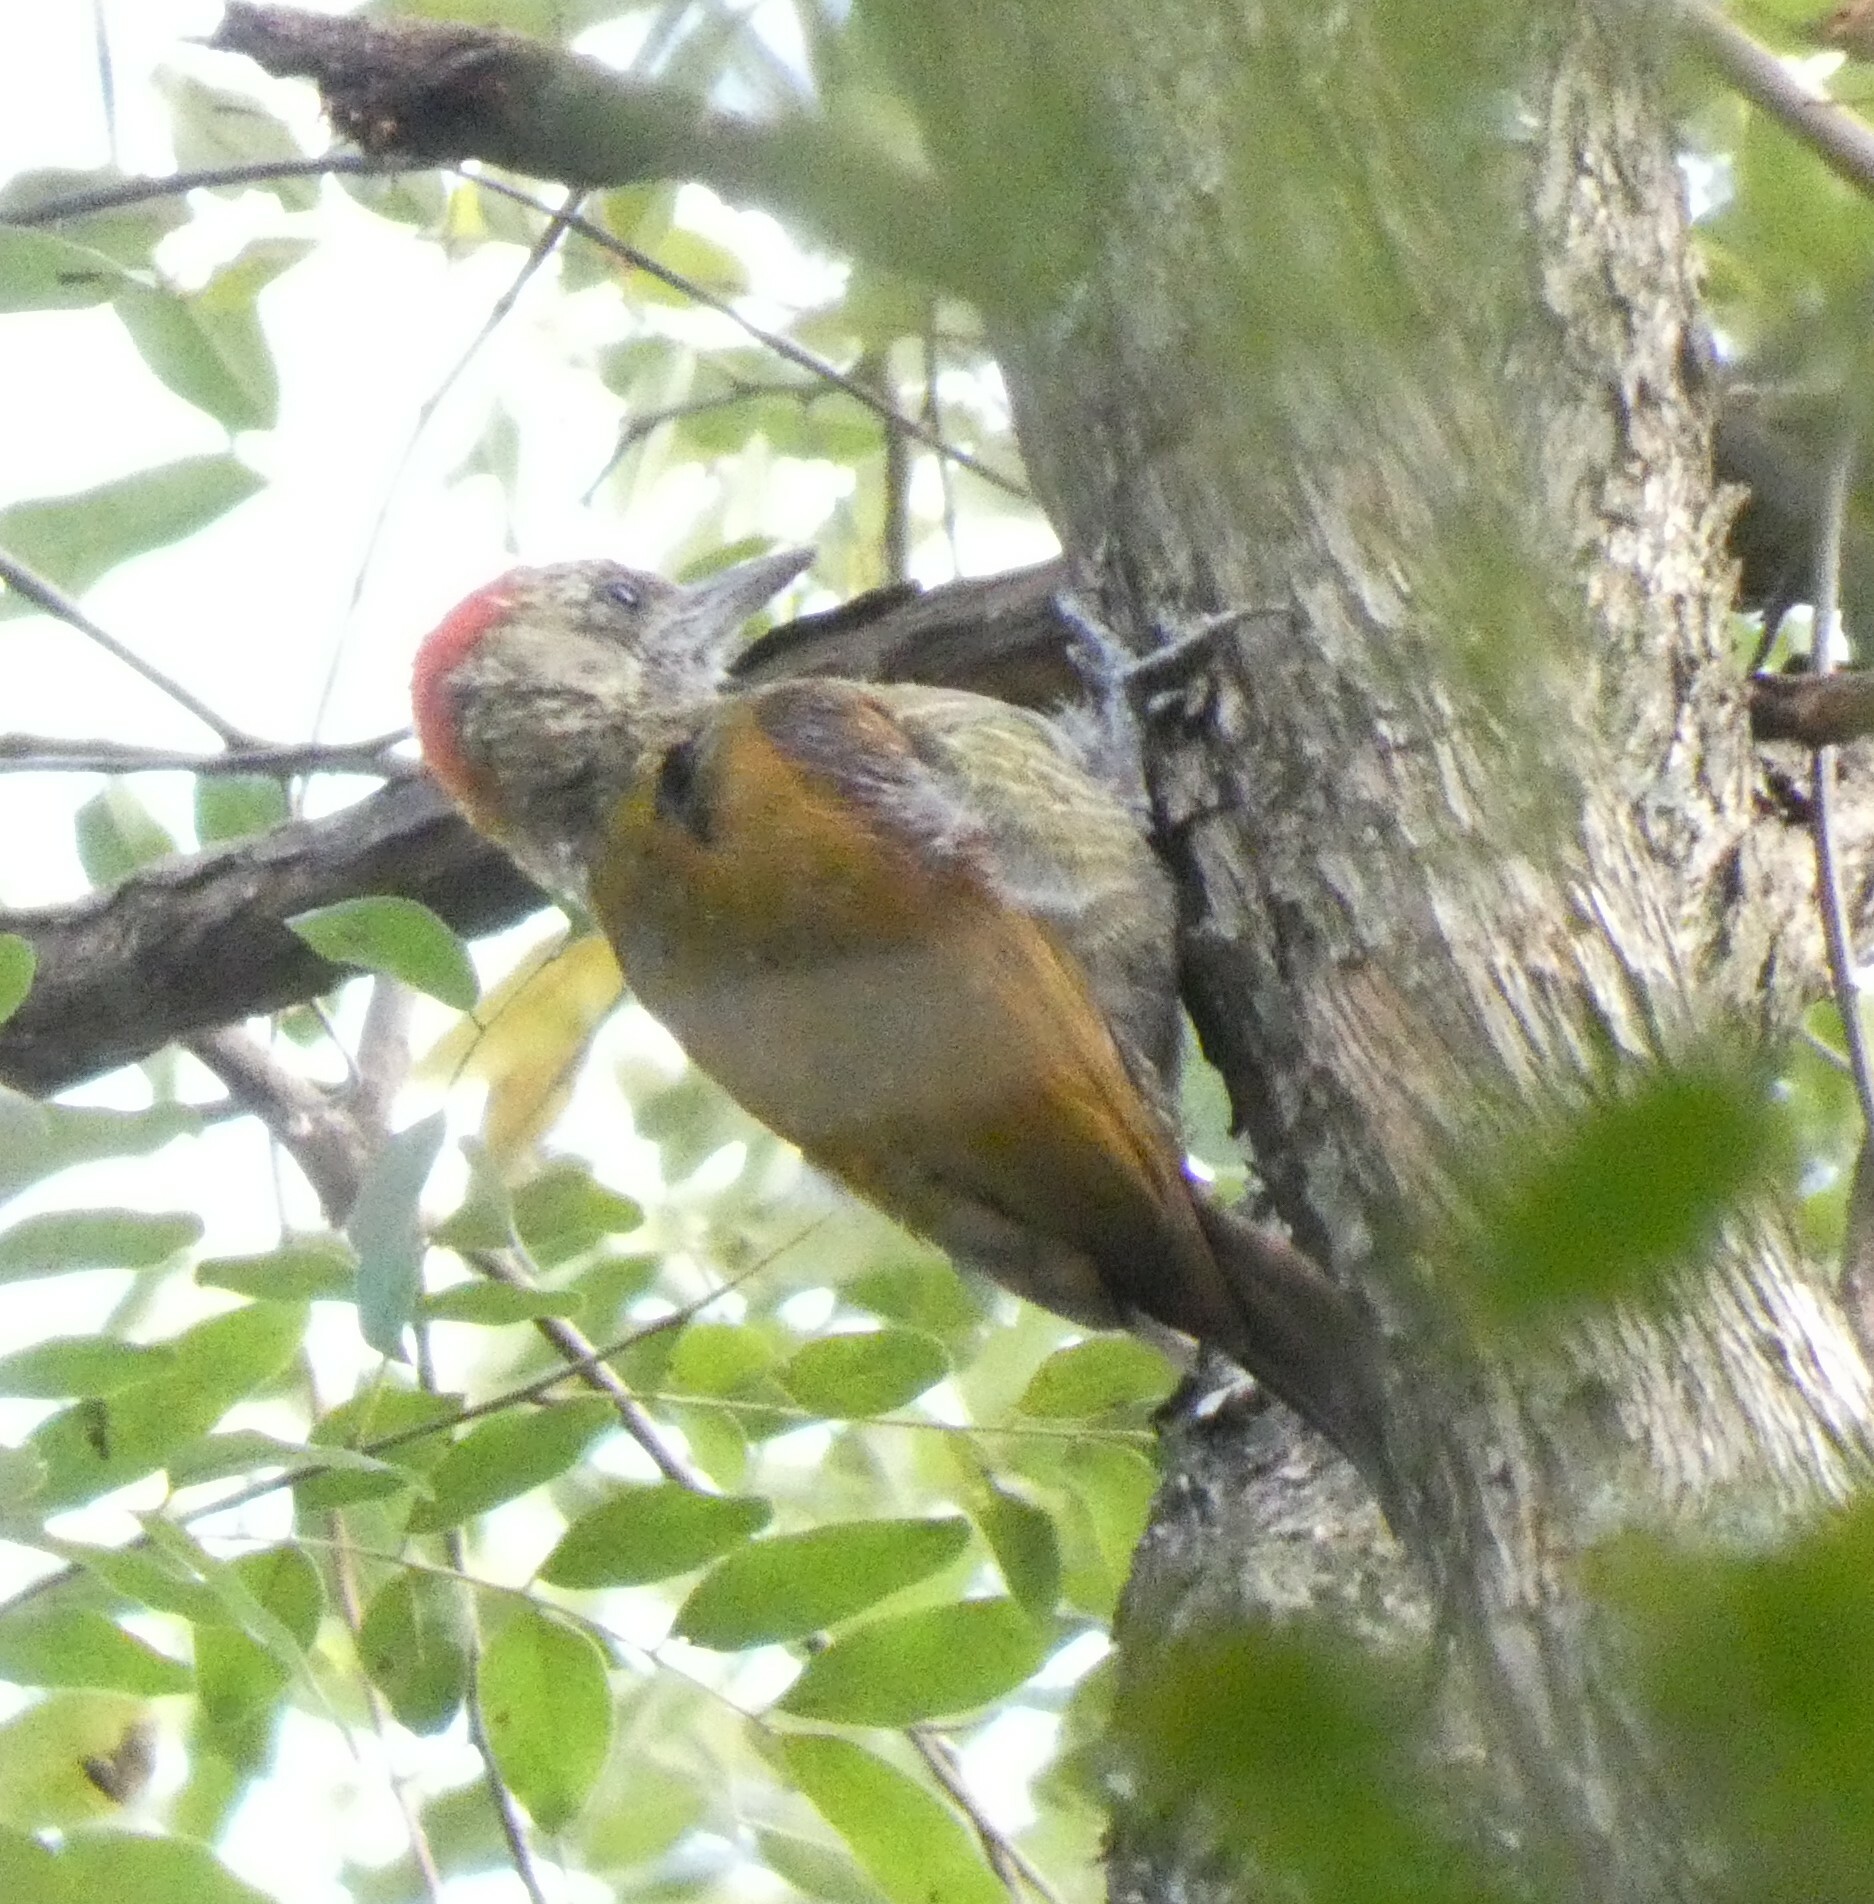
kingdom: Animalia
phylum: Chordata
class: Aves
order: Piciformes
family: Picidae
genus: Veniliornis
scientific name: Veniliornis passerinus
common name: Little woodpecker
